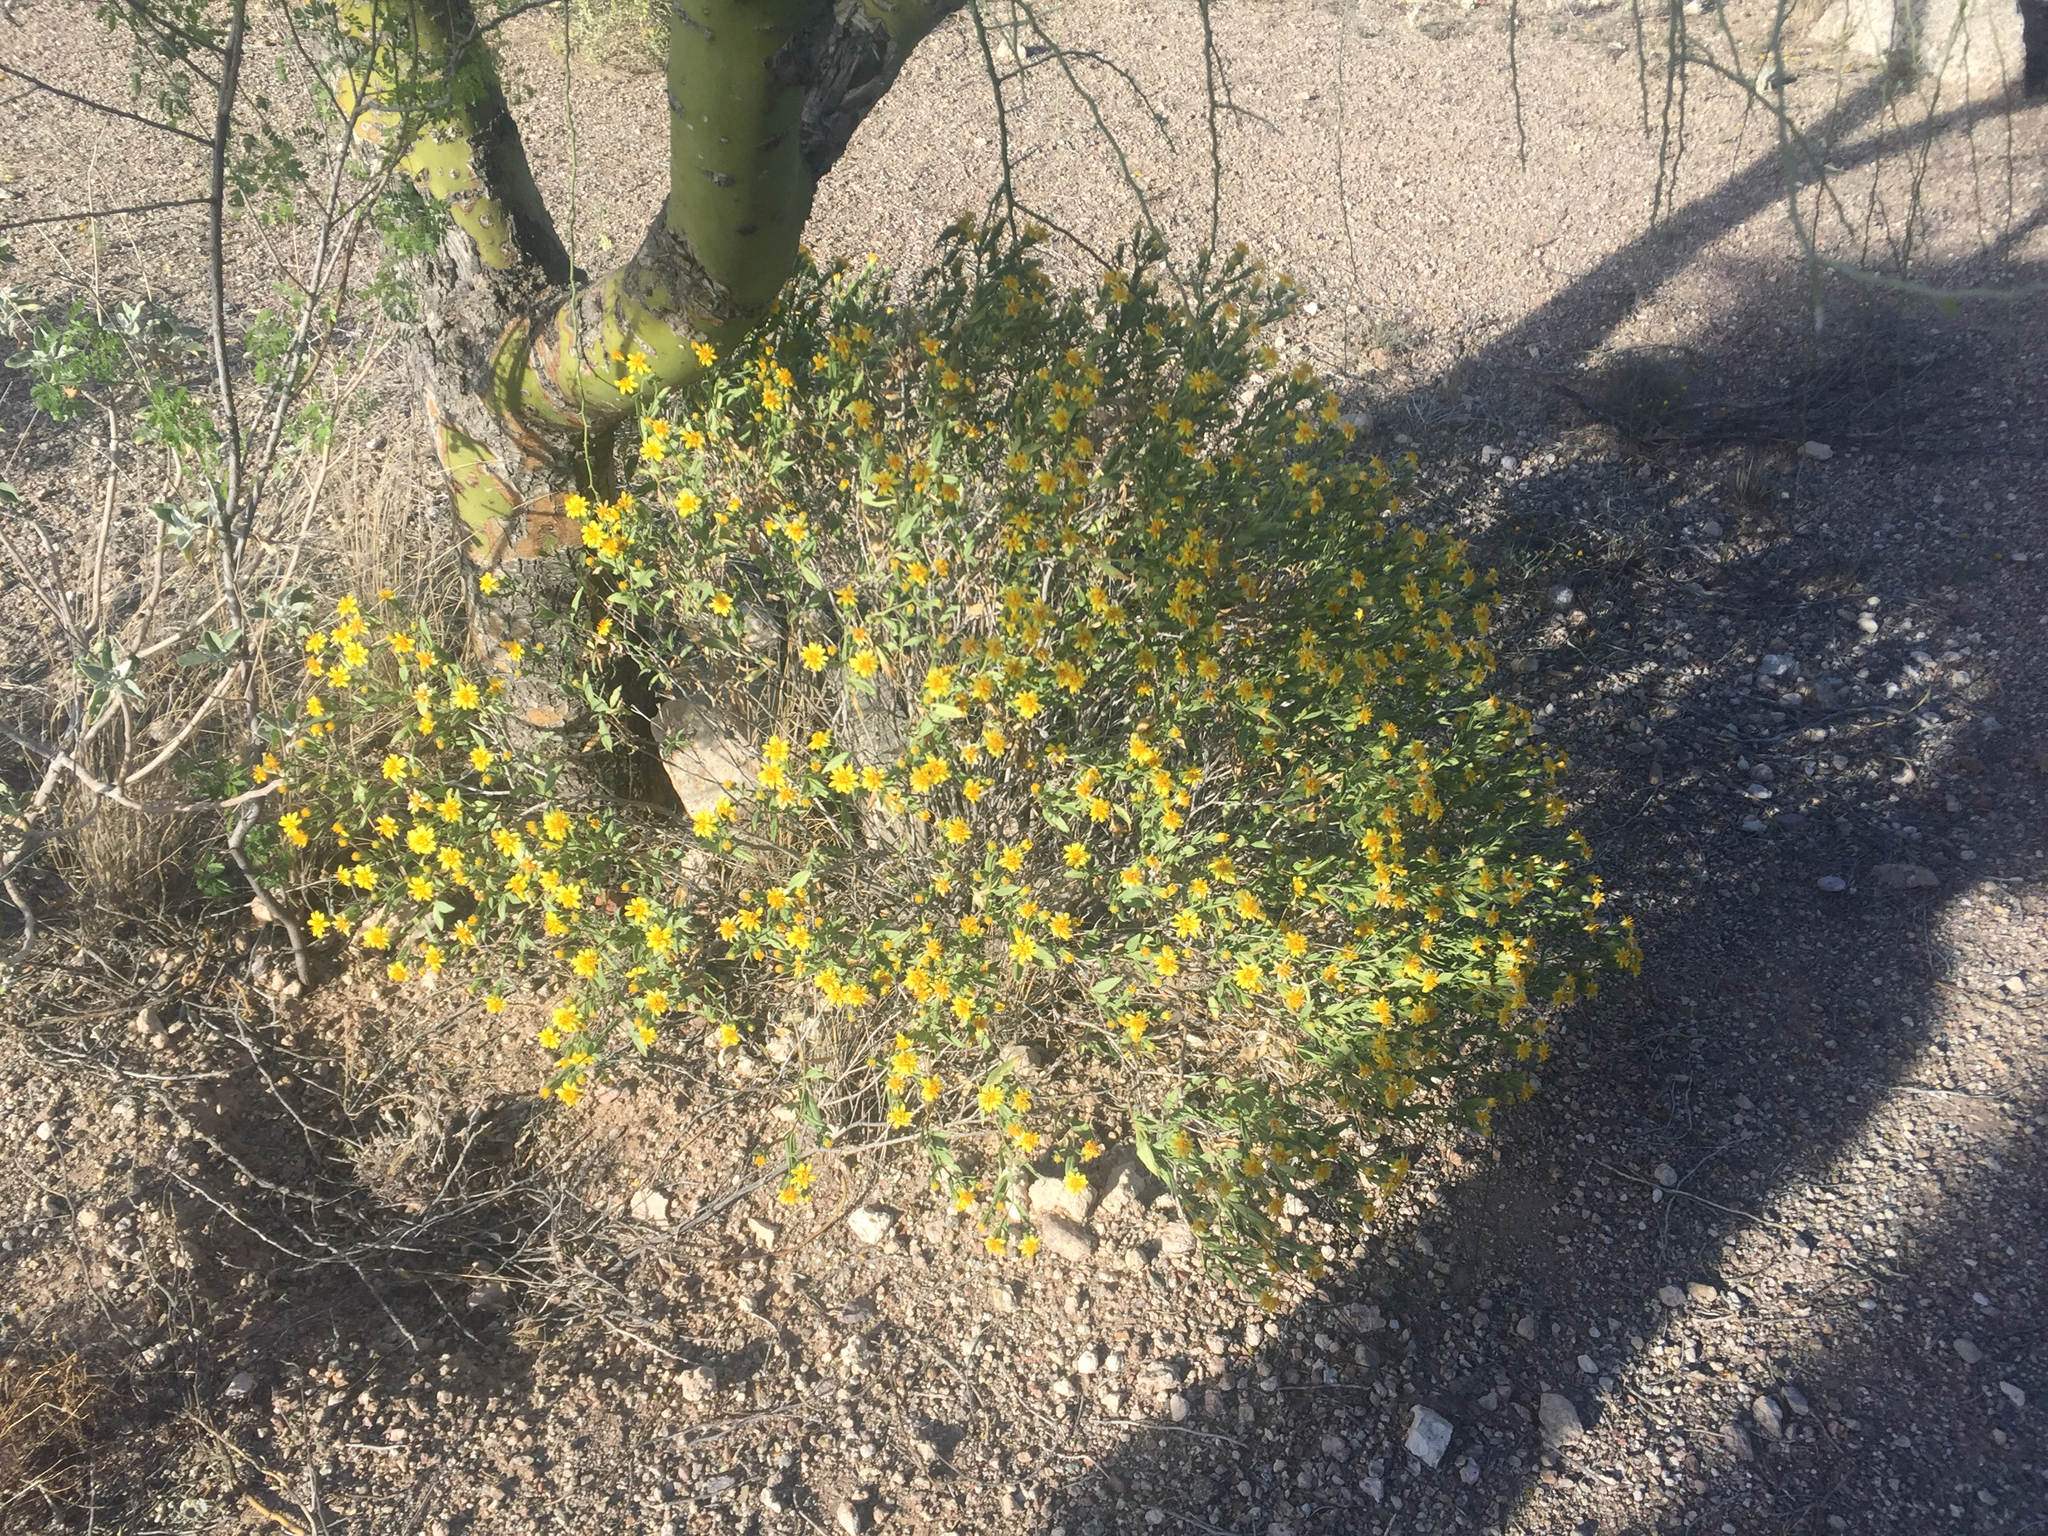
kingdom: Plantae
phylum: Tracheophyta
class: Magnoliopsida
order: Asterales
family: Asteraceae
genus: Trixis
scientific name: Trixis californica
